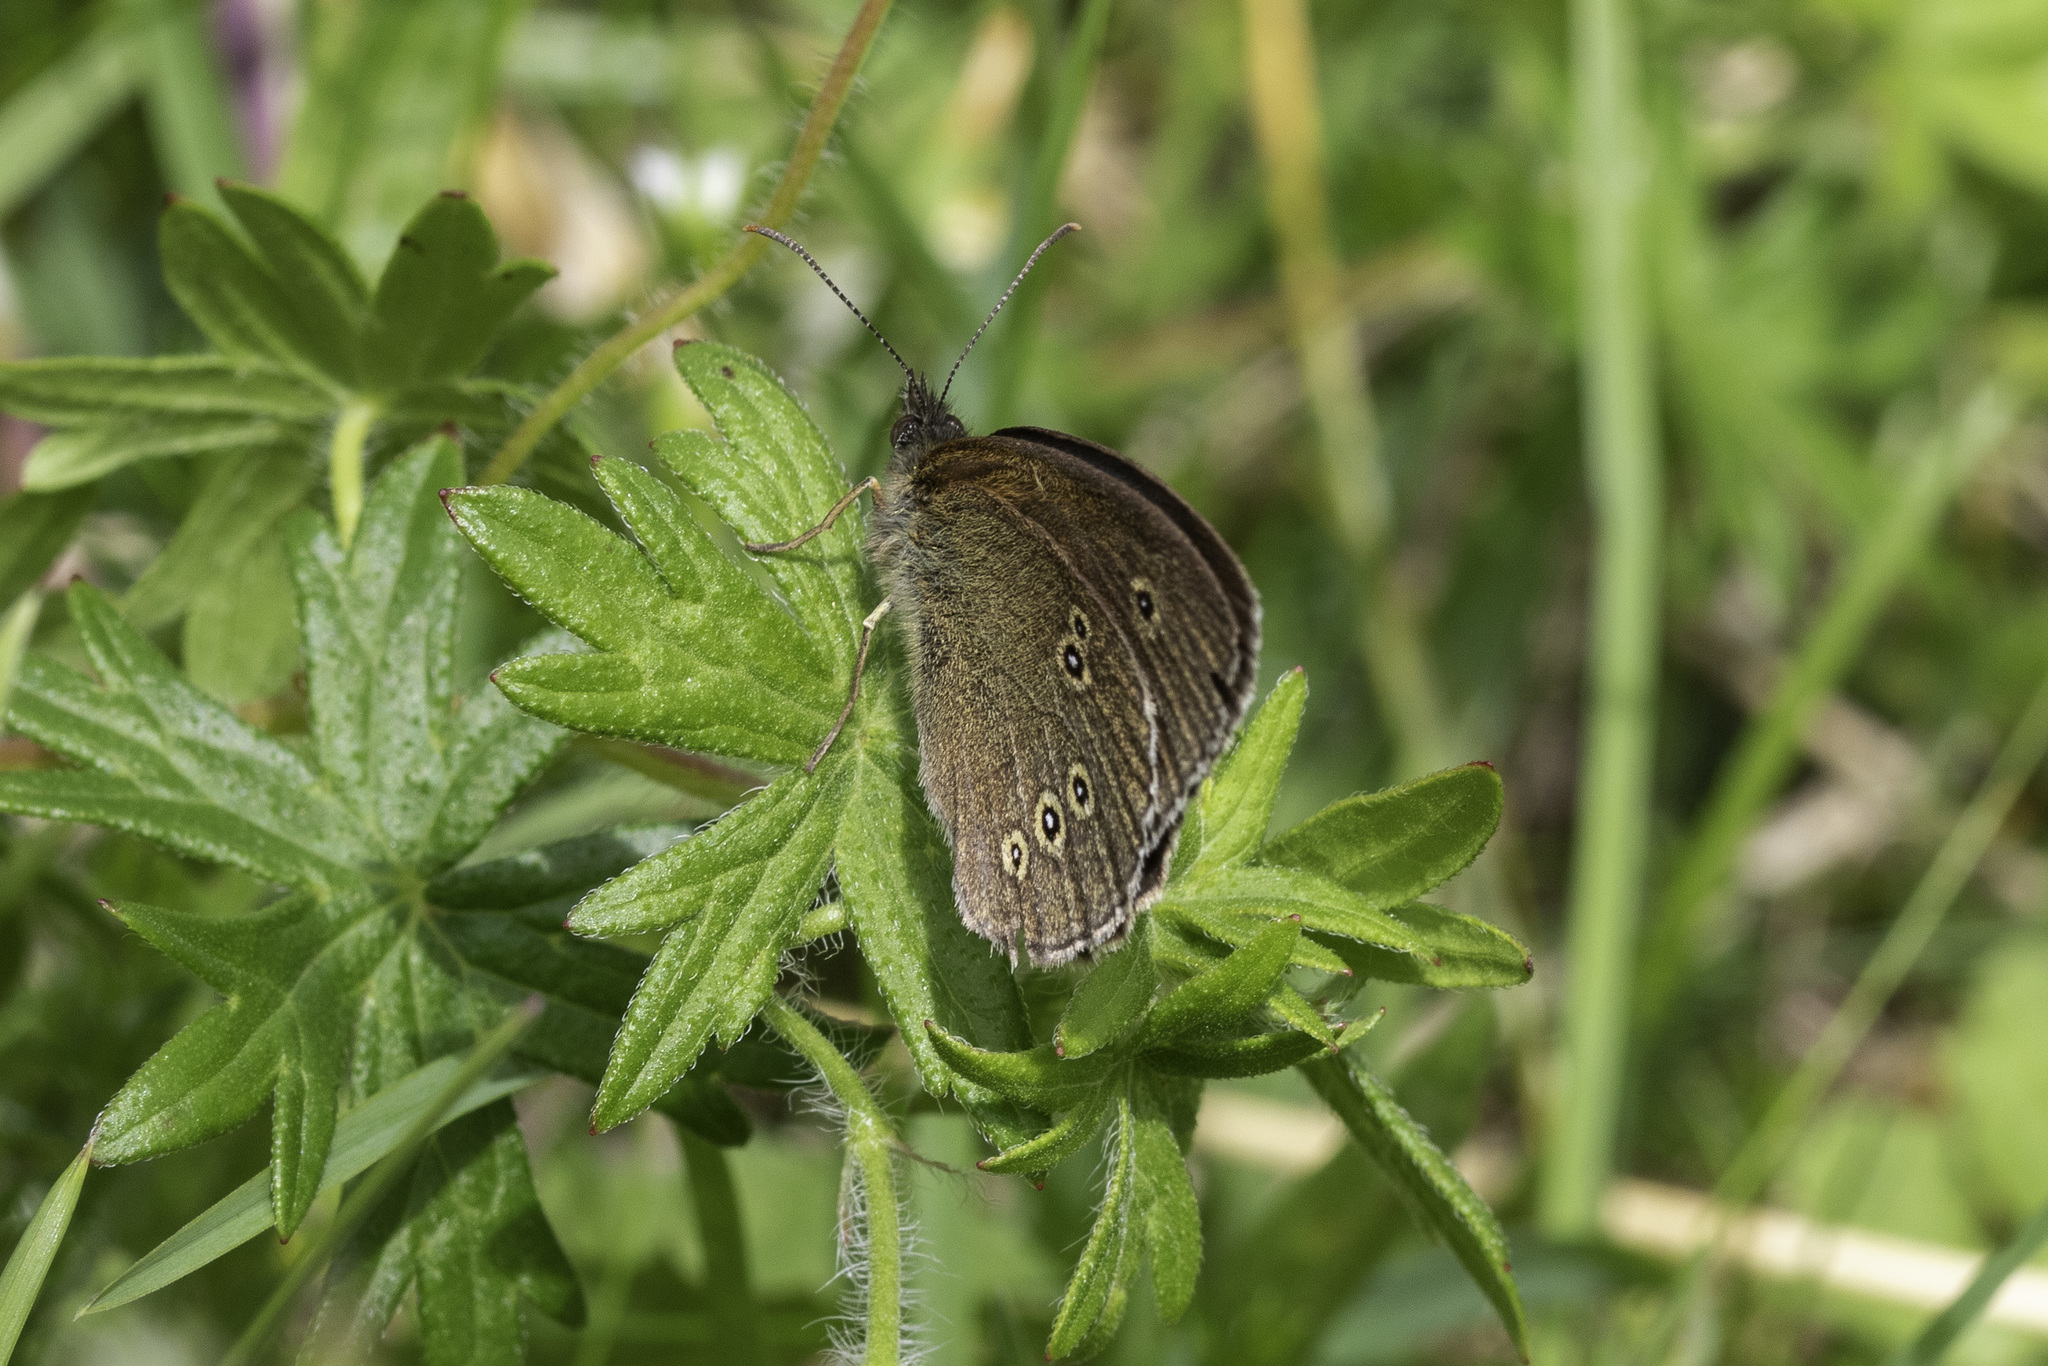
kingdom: Animalia
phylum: Arthropoda
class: Insecta
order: Lepidoptera
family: Nymphalidae
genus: Aphantopus
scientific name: Aphantopus hyperantus
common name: Ringlet
